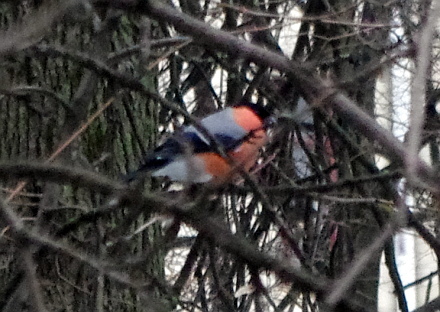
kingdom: Animalia
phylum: Chordata
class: Aves
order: Passeriformes
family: Fringillidae
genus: Pyrrhula
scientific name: Pyrrhula pyrrhula
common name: Eurasian bullfinch
